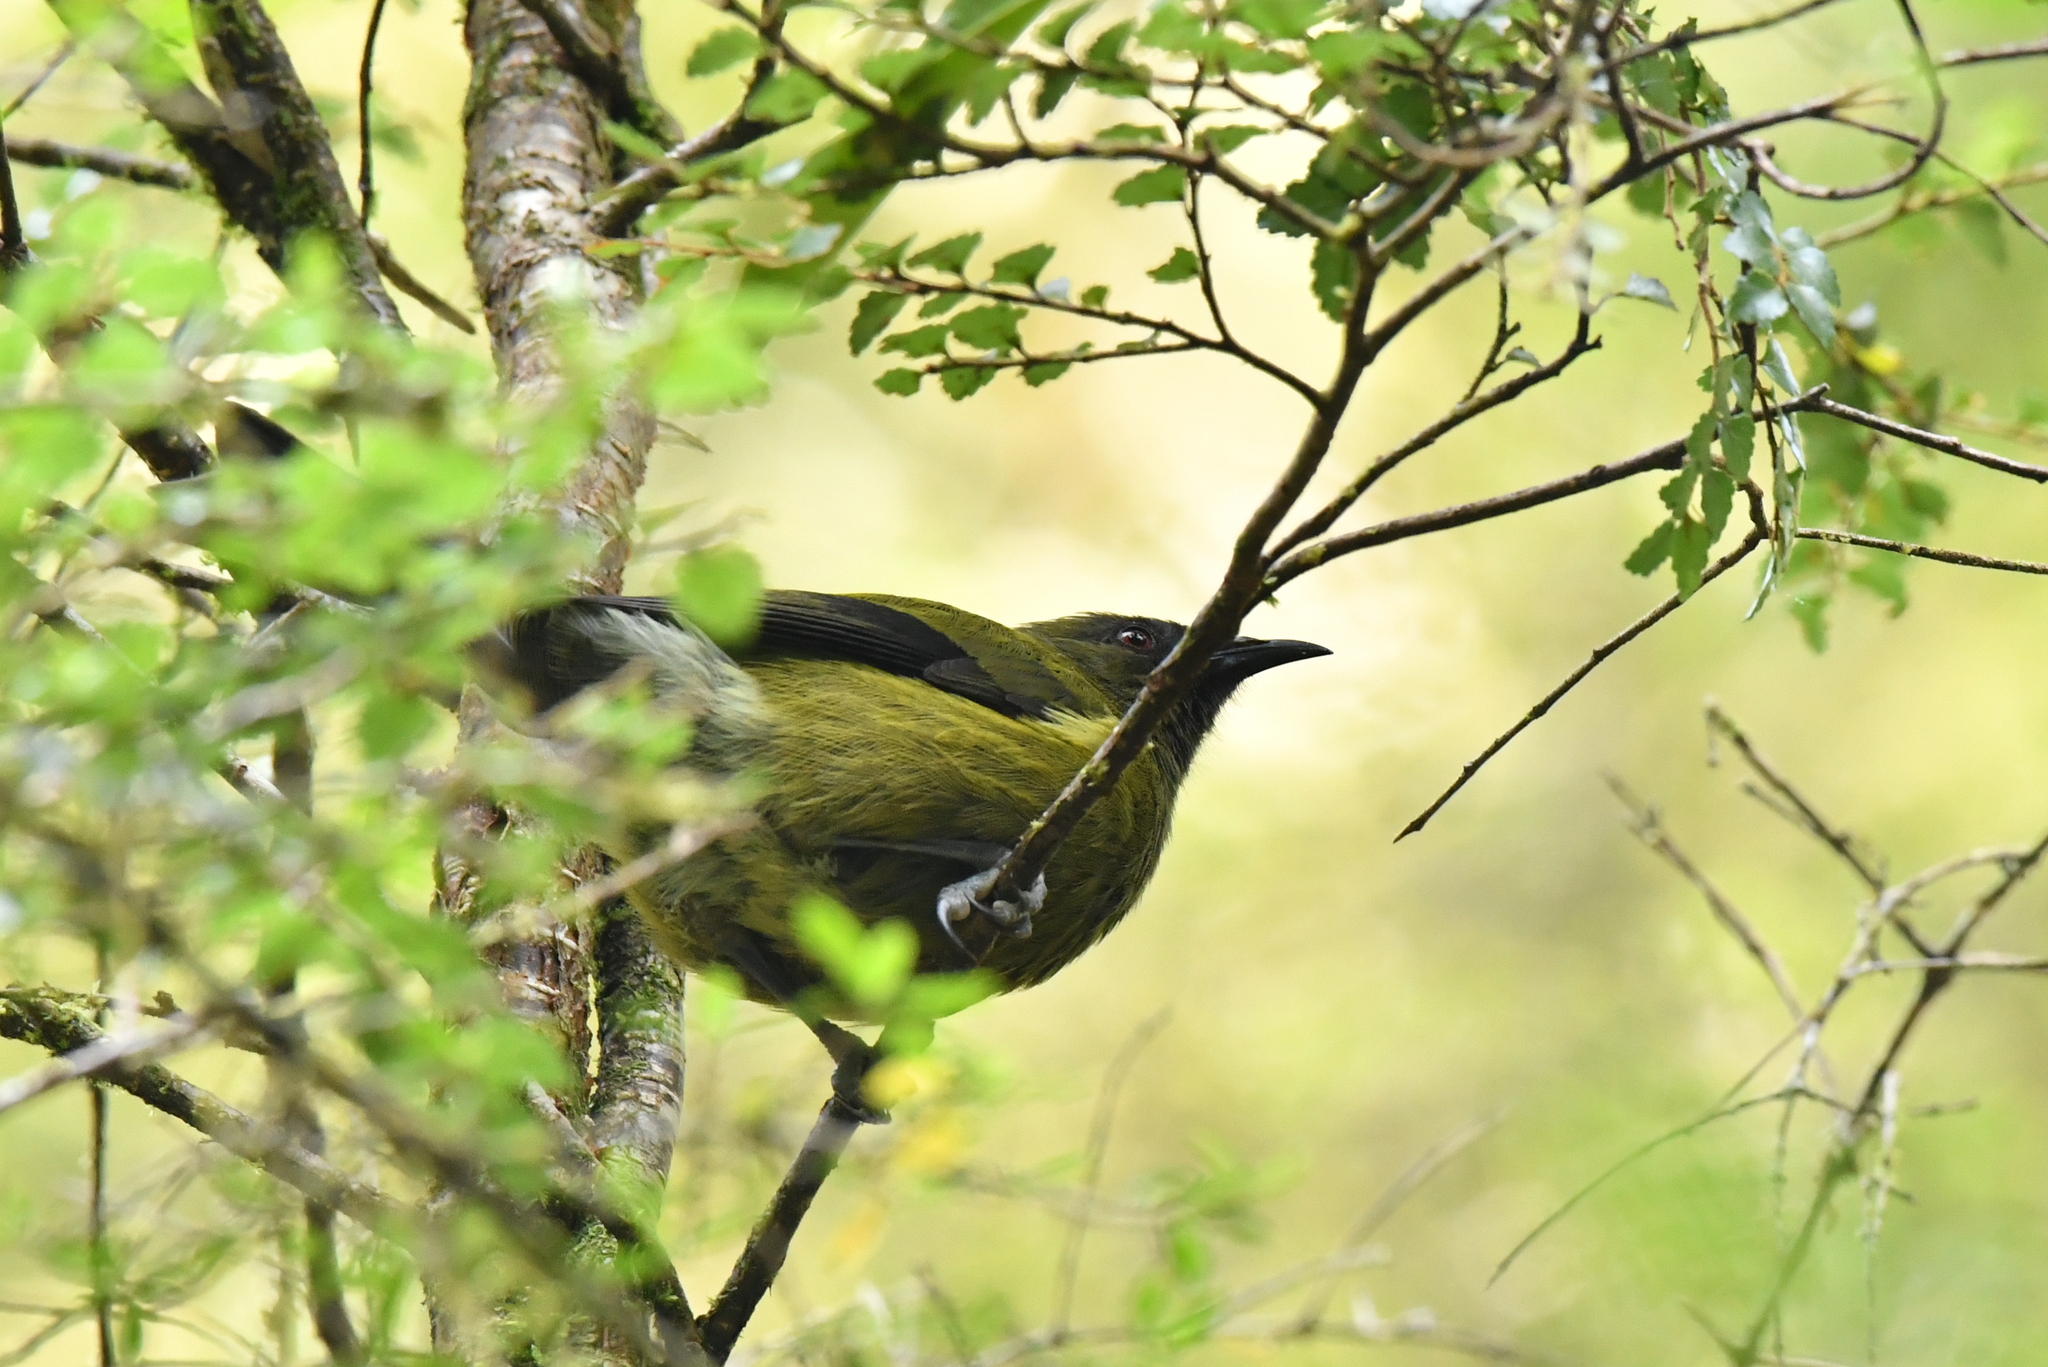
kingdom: Animalia
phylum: Chordata
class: Aves
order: Passeriformes
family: Meliphagidae
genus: Anthornis
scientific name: Anthornis melanura
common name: New zealand bellbird
